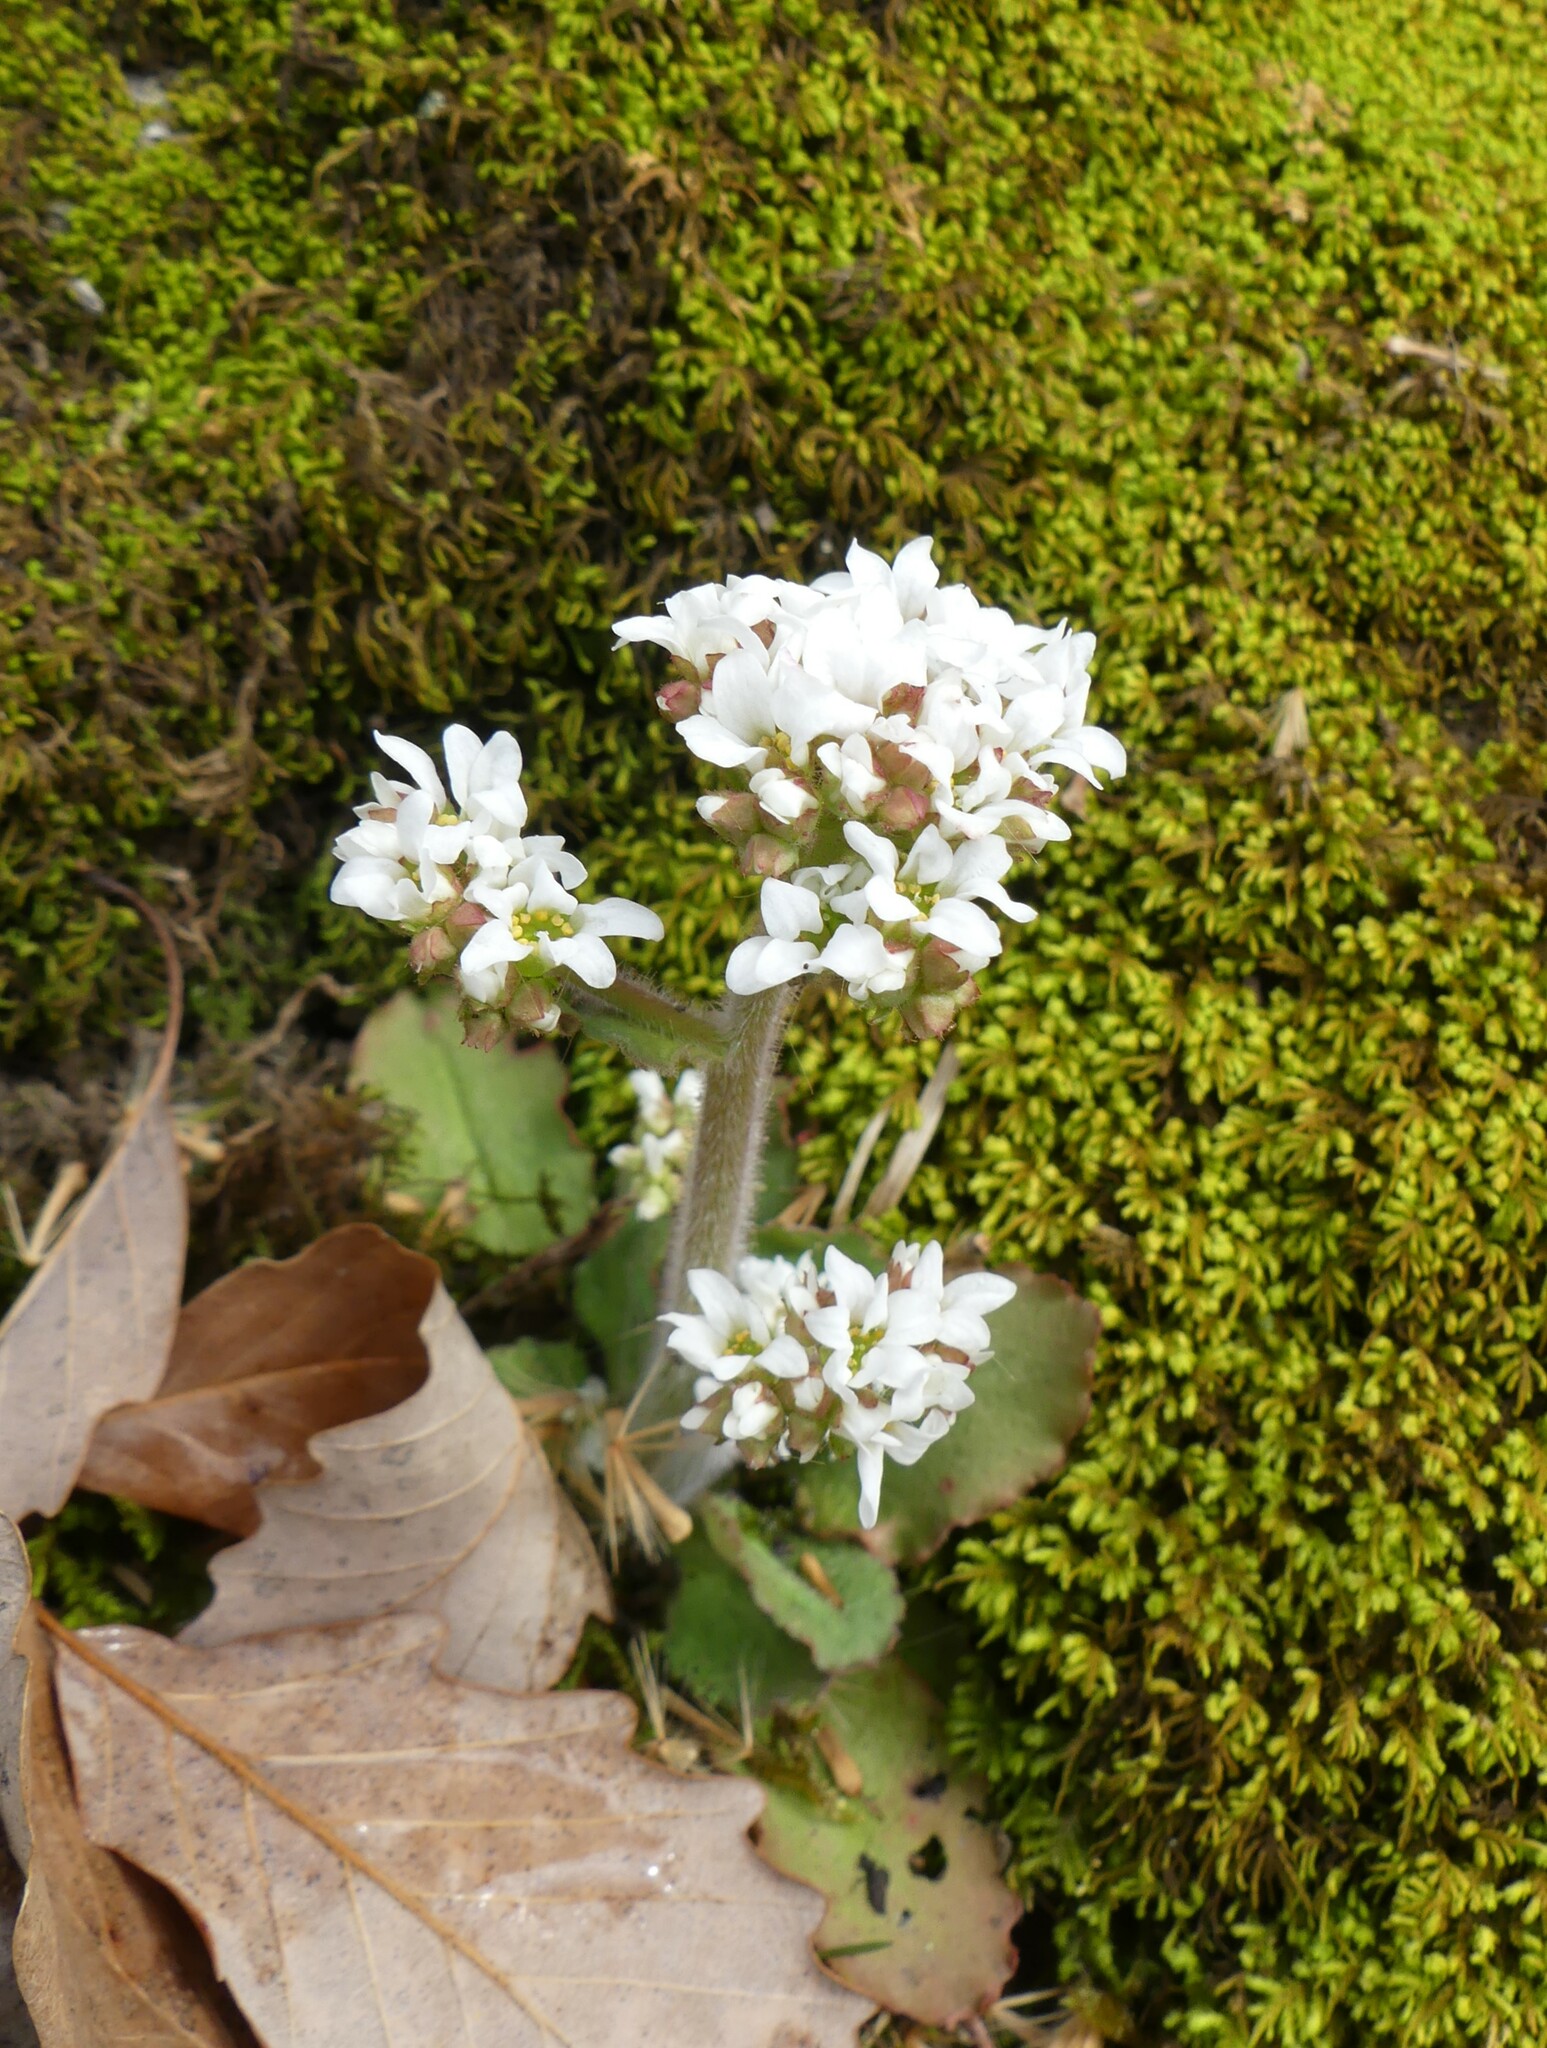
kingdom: Plantae
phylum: Tracheophyta
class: Magnoliopsida
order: Saxifragales
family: Saxifragaceae
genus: Micranthes
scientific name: Micranthes virginiensis
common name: Early saxifrage
